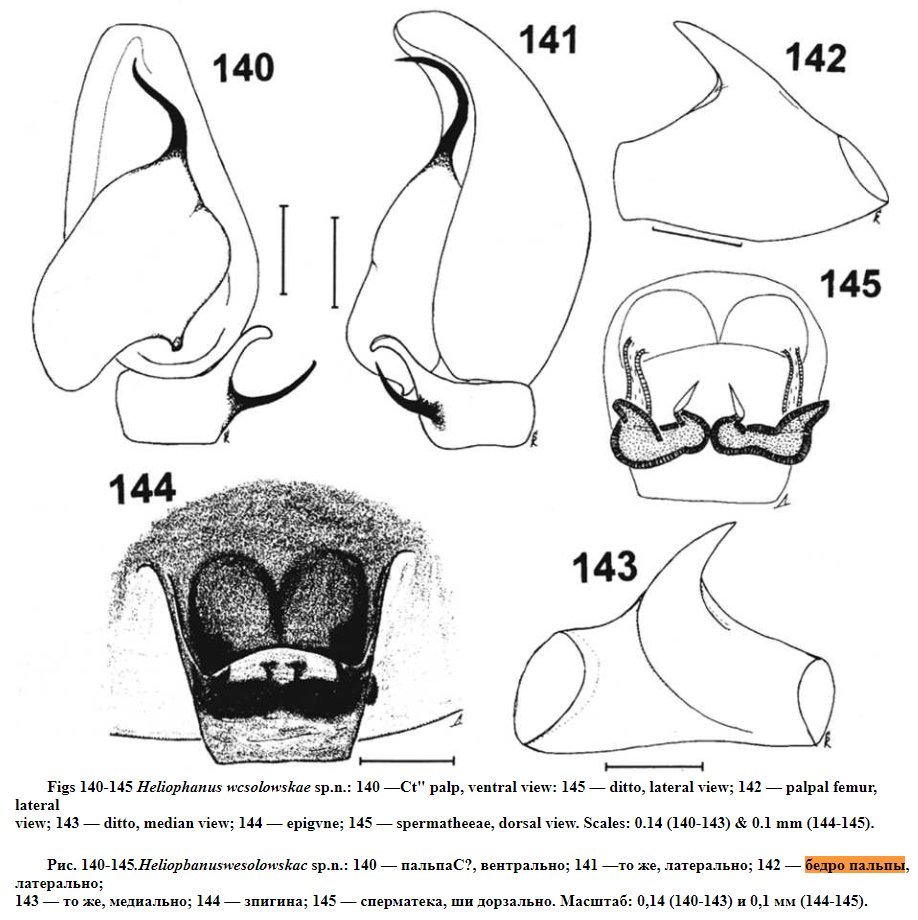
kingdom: Animalia
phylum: Arthropoda
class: Arachnida
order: Araneae
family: Salticidae
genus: Heliophanus
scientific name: Heliophanus wesolowskae
